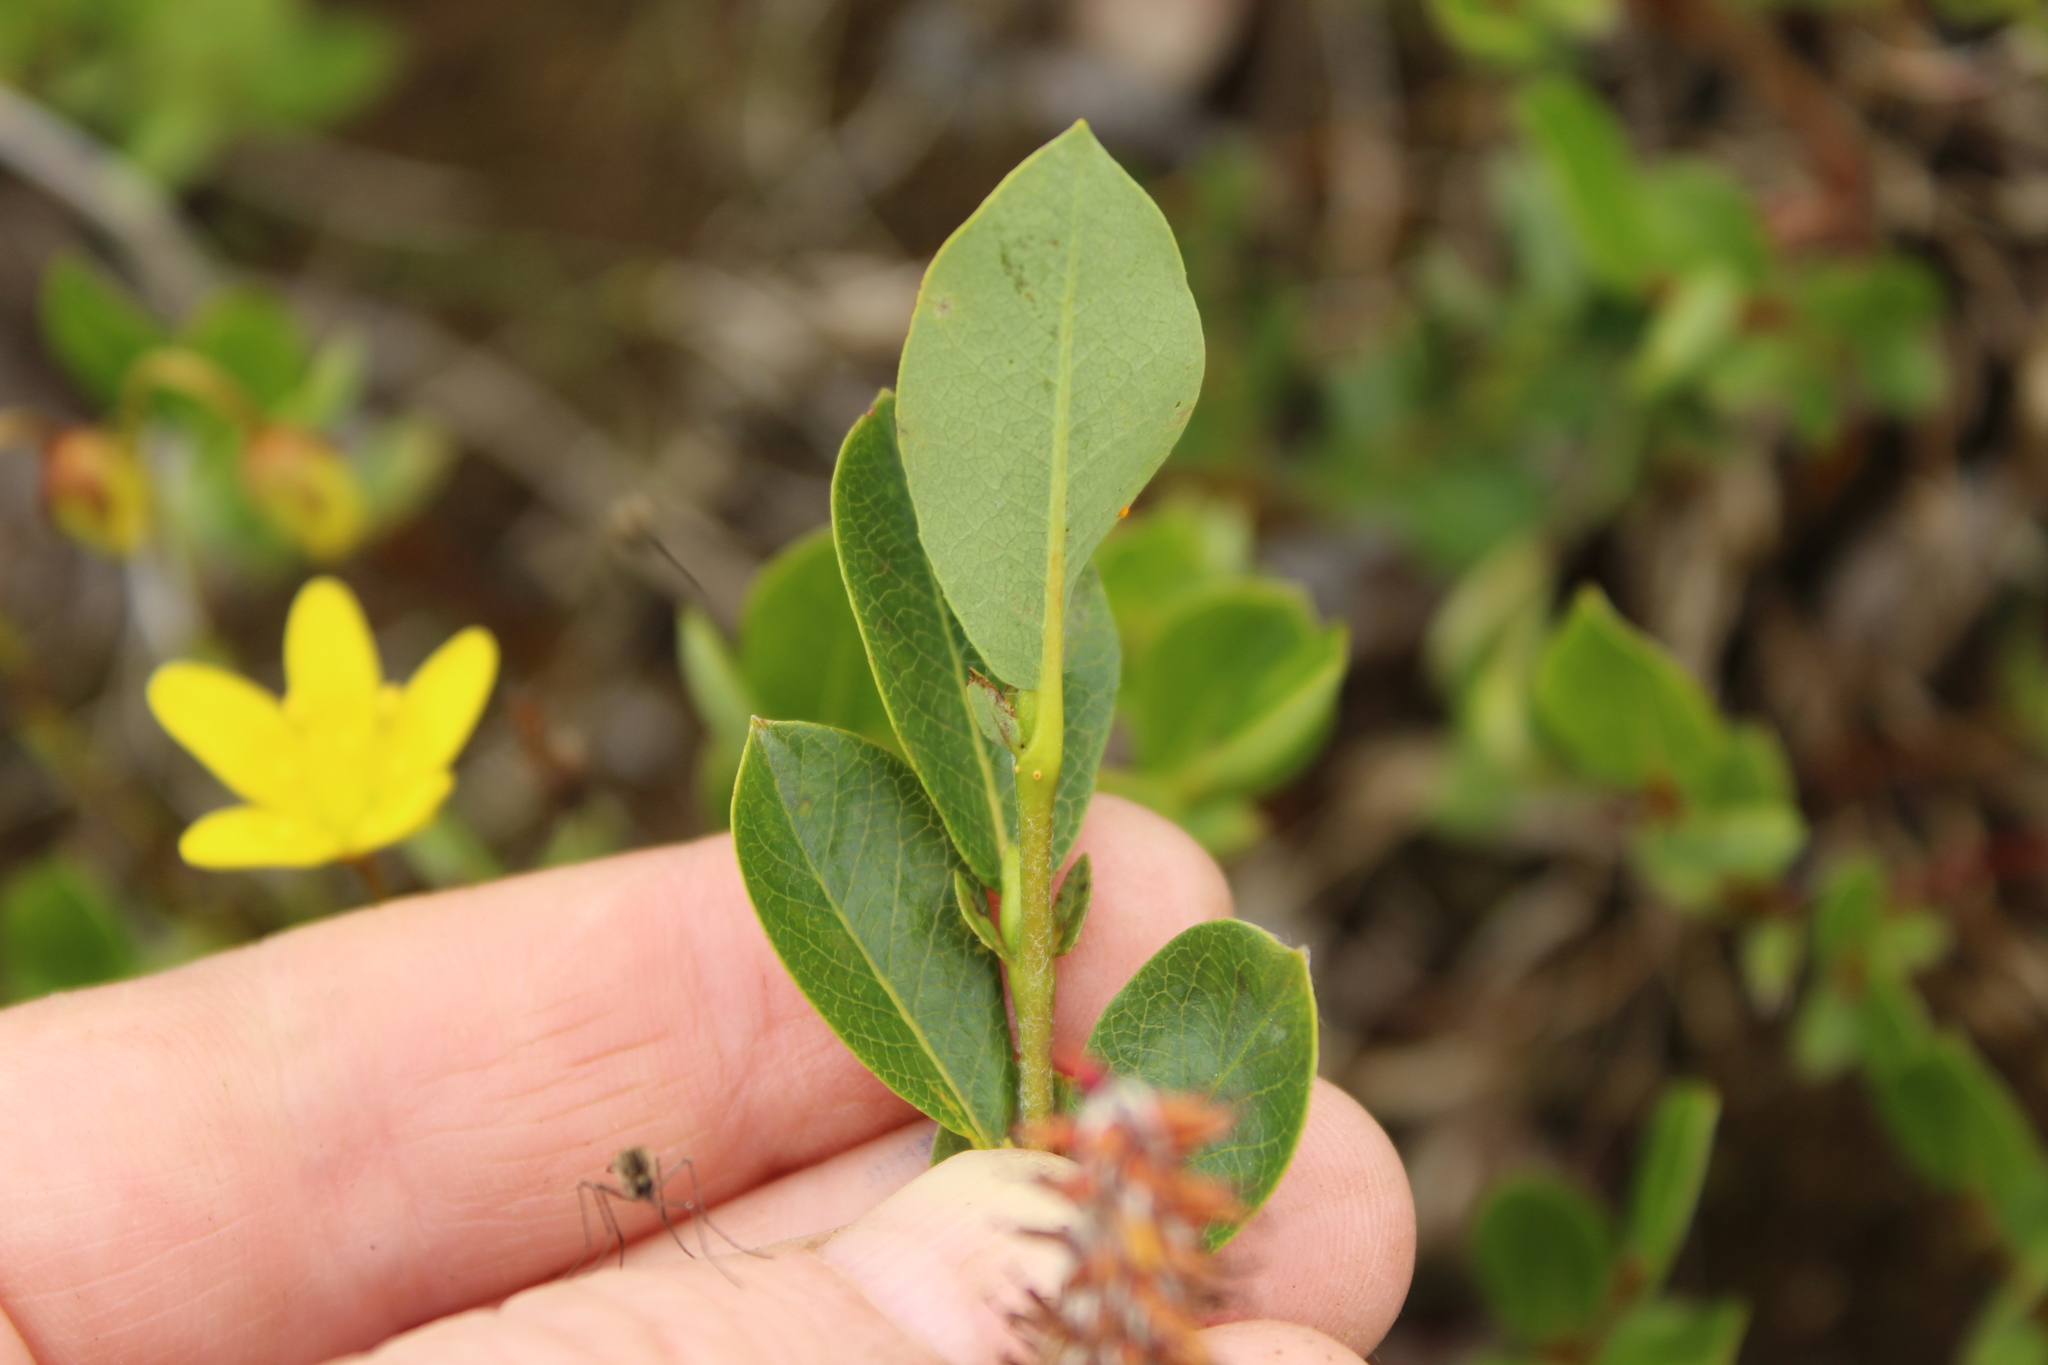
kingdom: Plantae
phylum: Tracheophyta
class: Magnoliopsida
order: Malpighiales
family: Salicaceae
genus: Salix
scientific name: Salix pulchra
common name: Diamond-leaved willow
